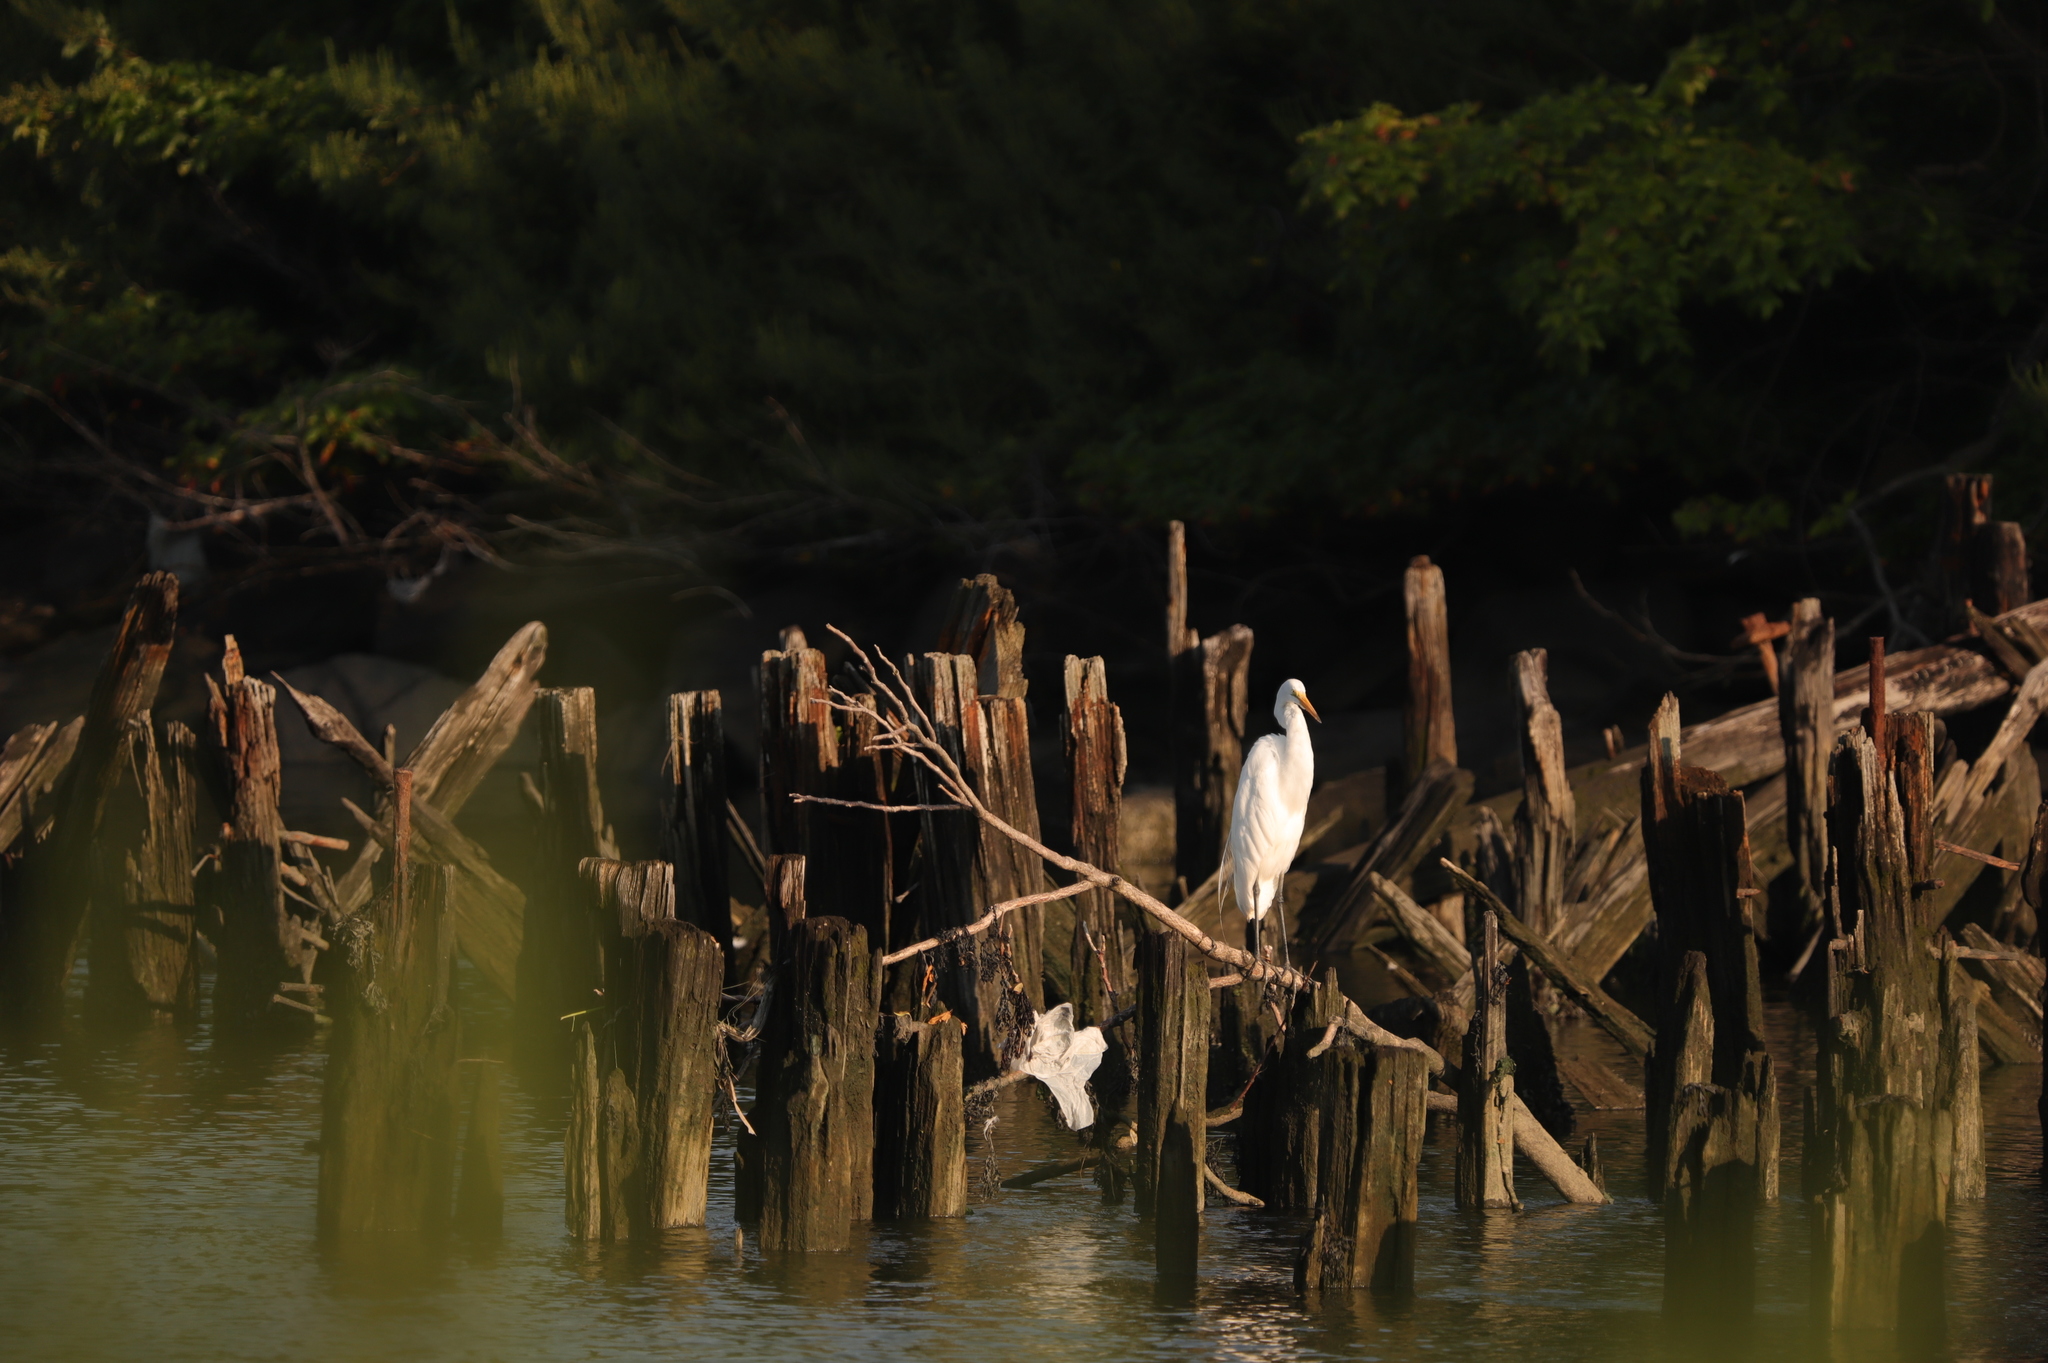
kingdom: Animalia
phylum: Chordata
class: Aves
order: Pelecaniformes
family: Ardeidae
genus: Ardea
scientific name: Ardea alba
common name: Great egret
